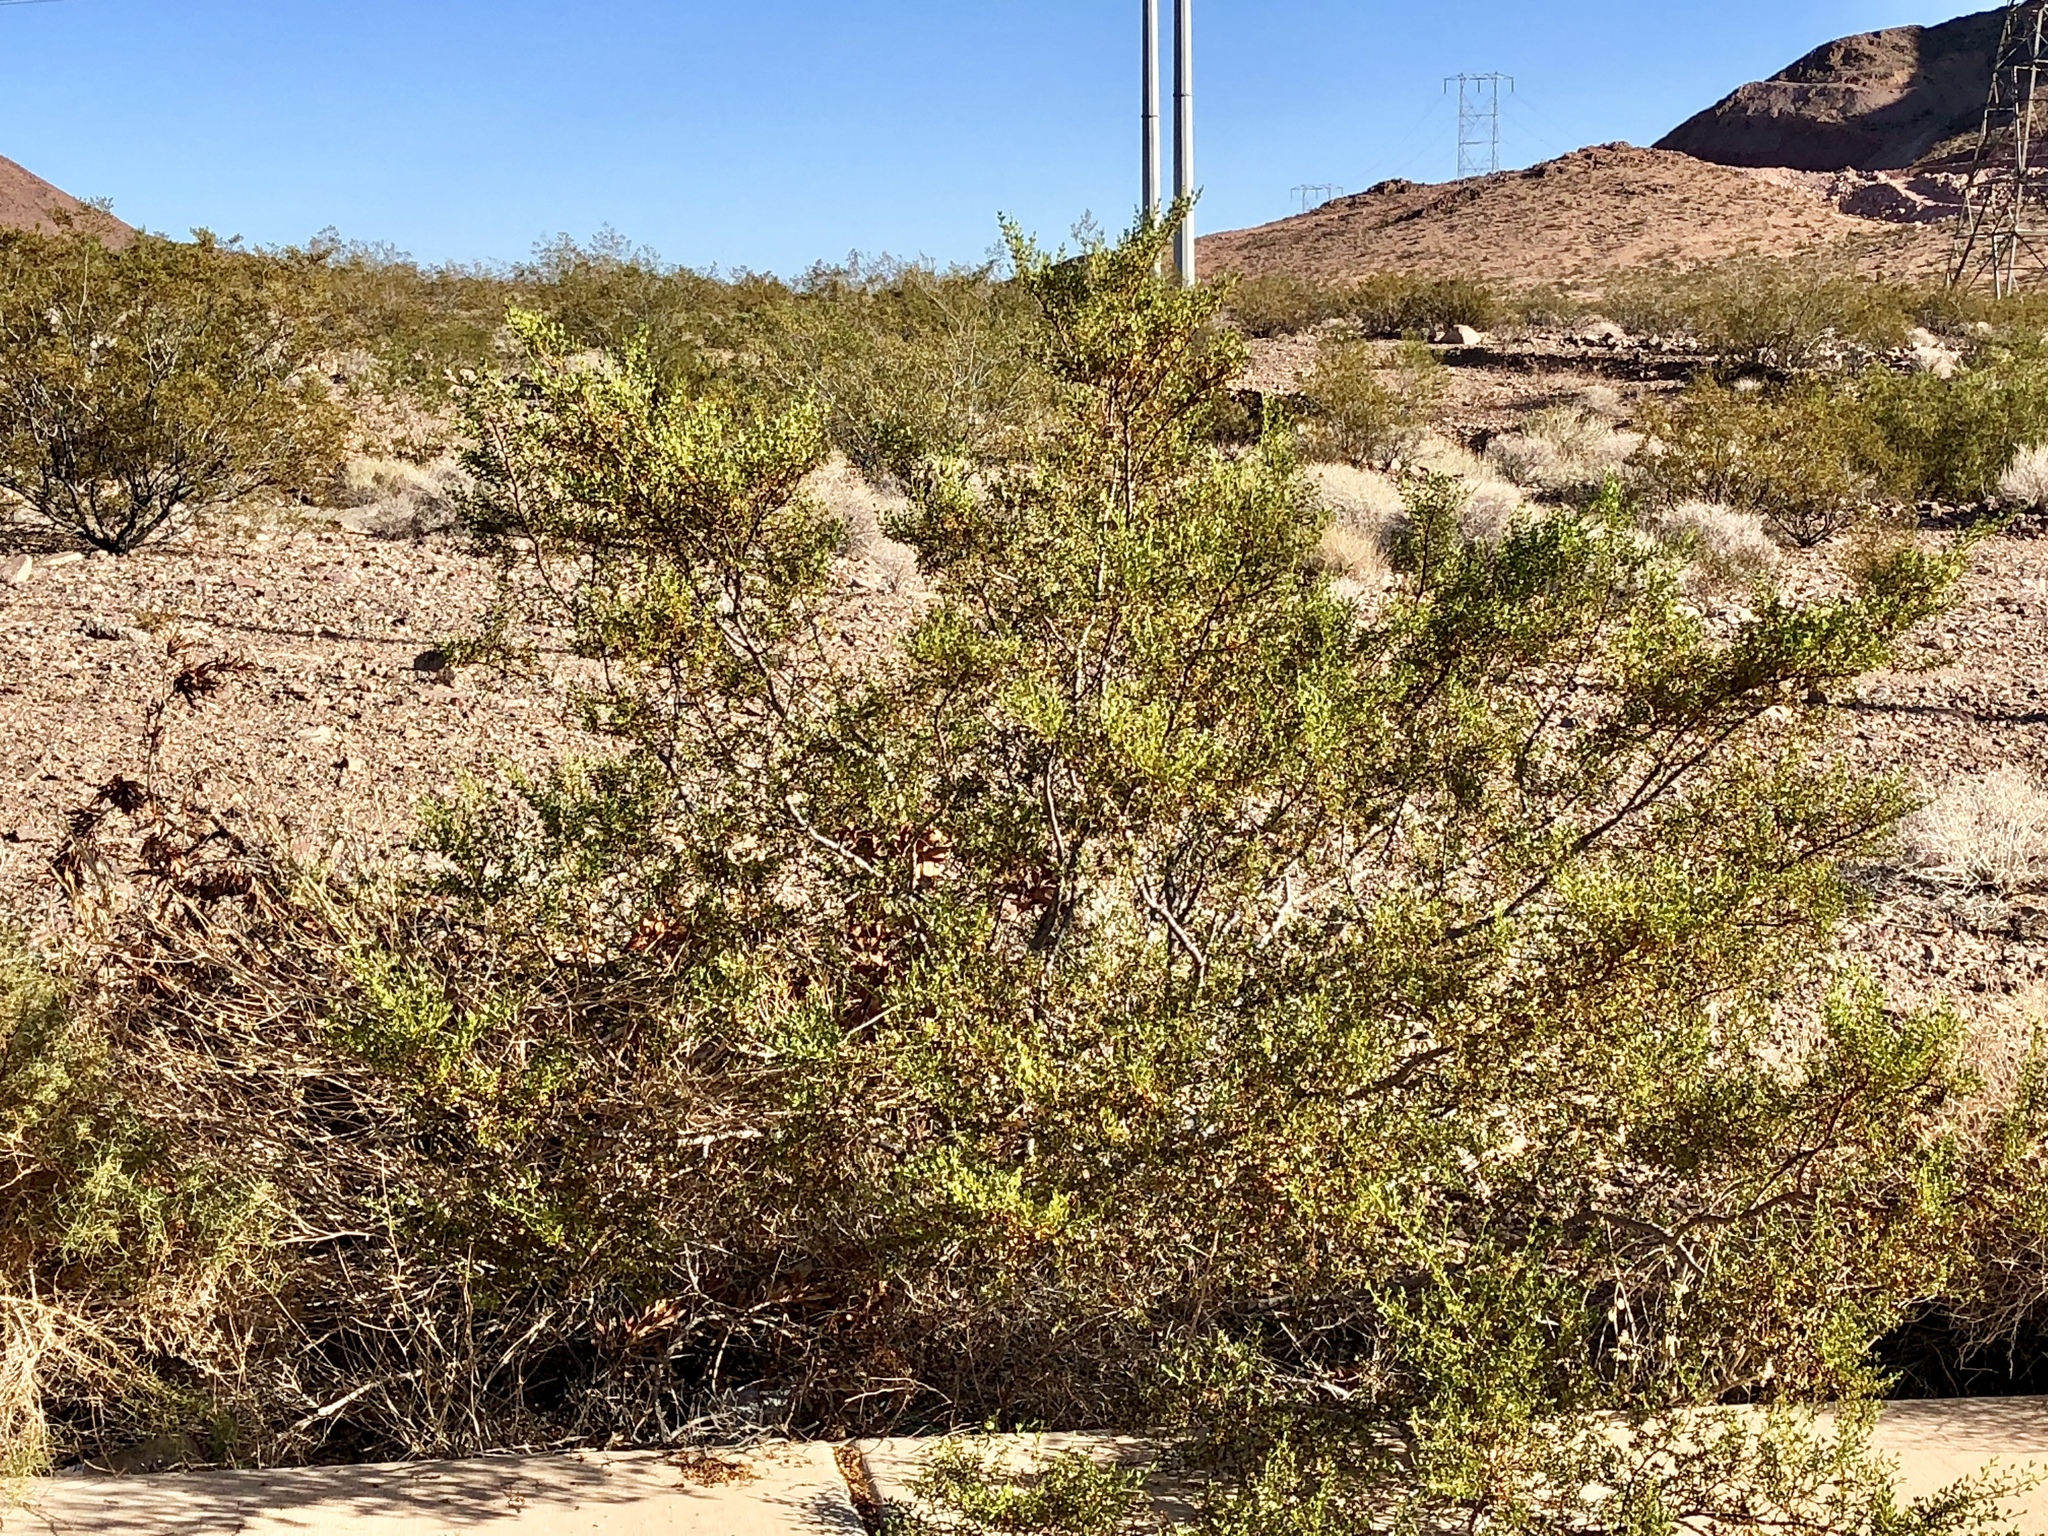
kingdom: Plantae
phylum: Tracheophyta
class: Magnoliopsida
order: Zygophyllales
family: Zygophyllaceae
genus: Larrea
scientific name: Larrea tridentata
